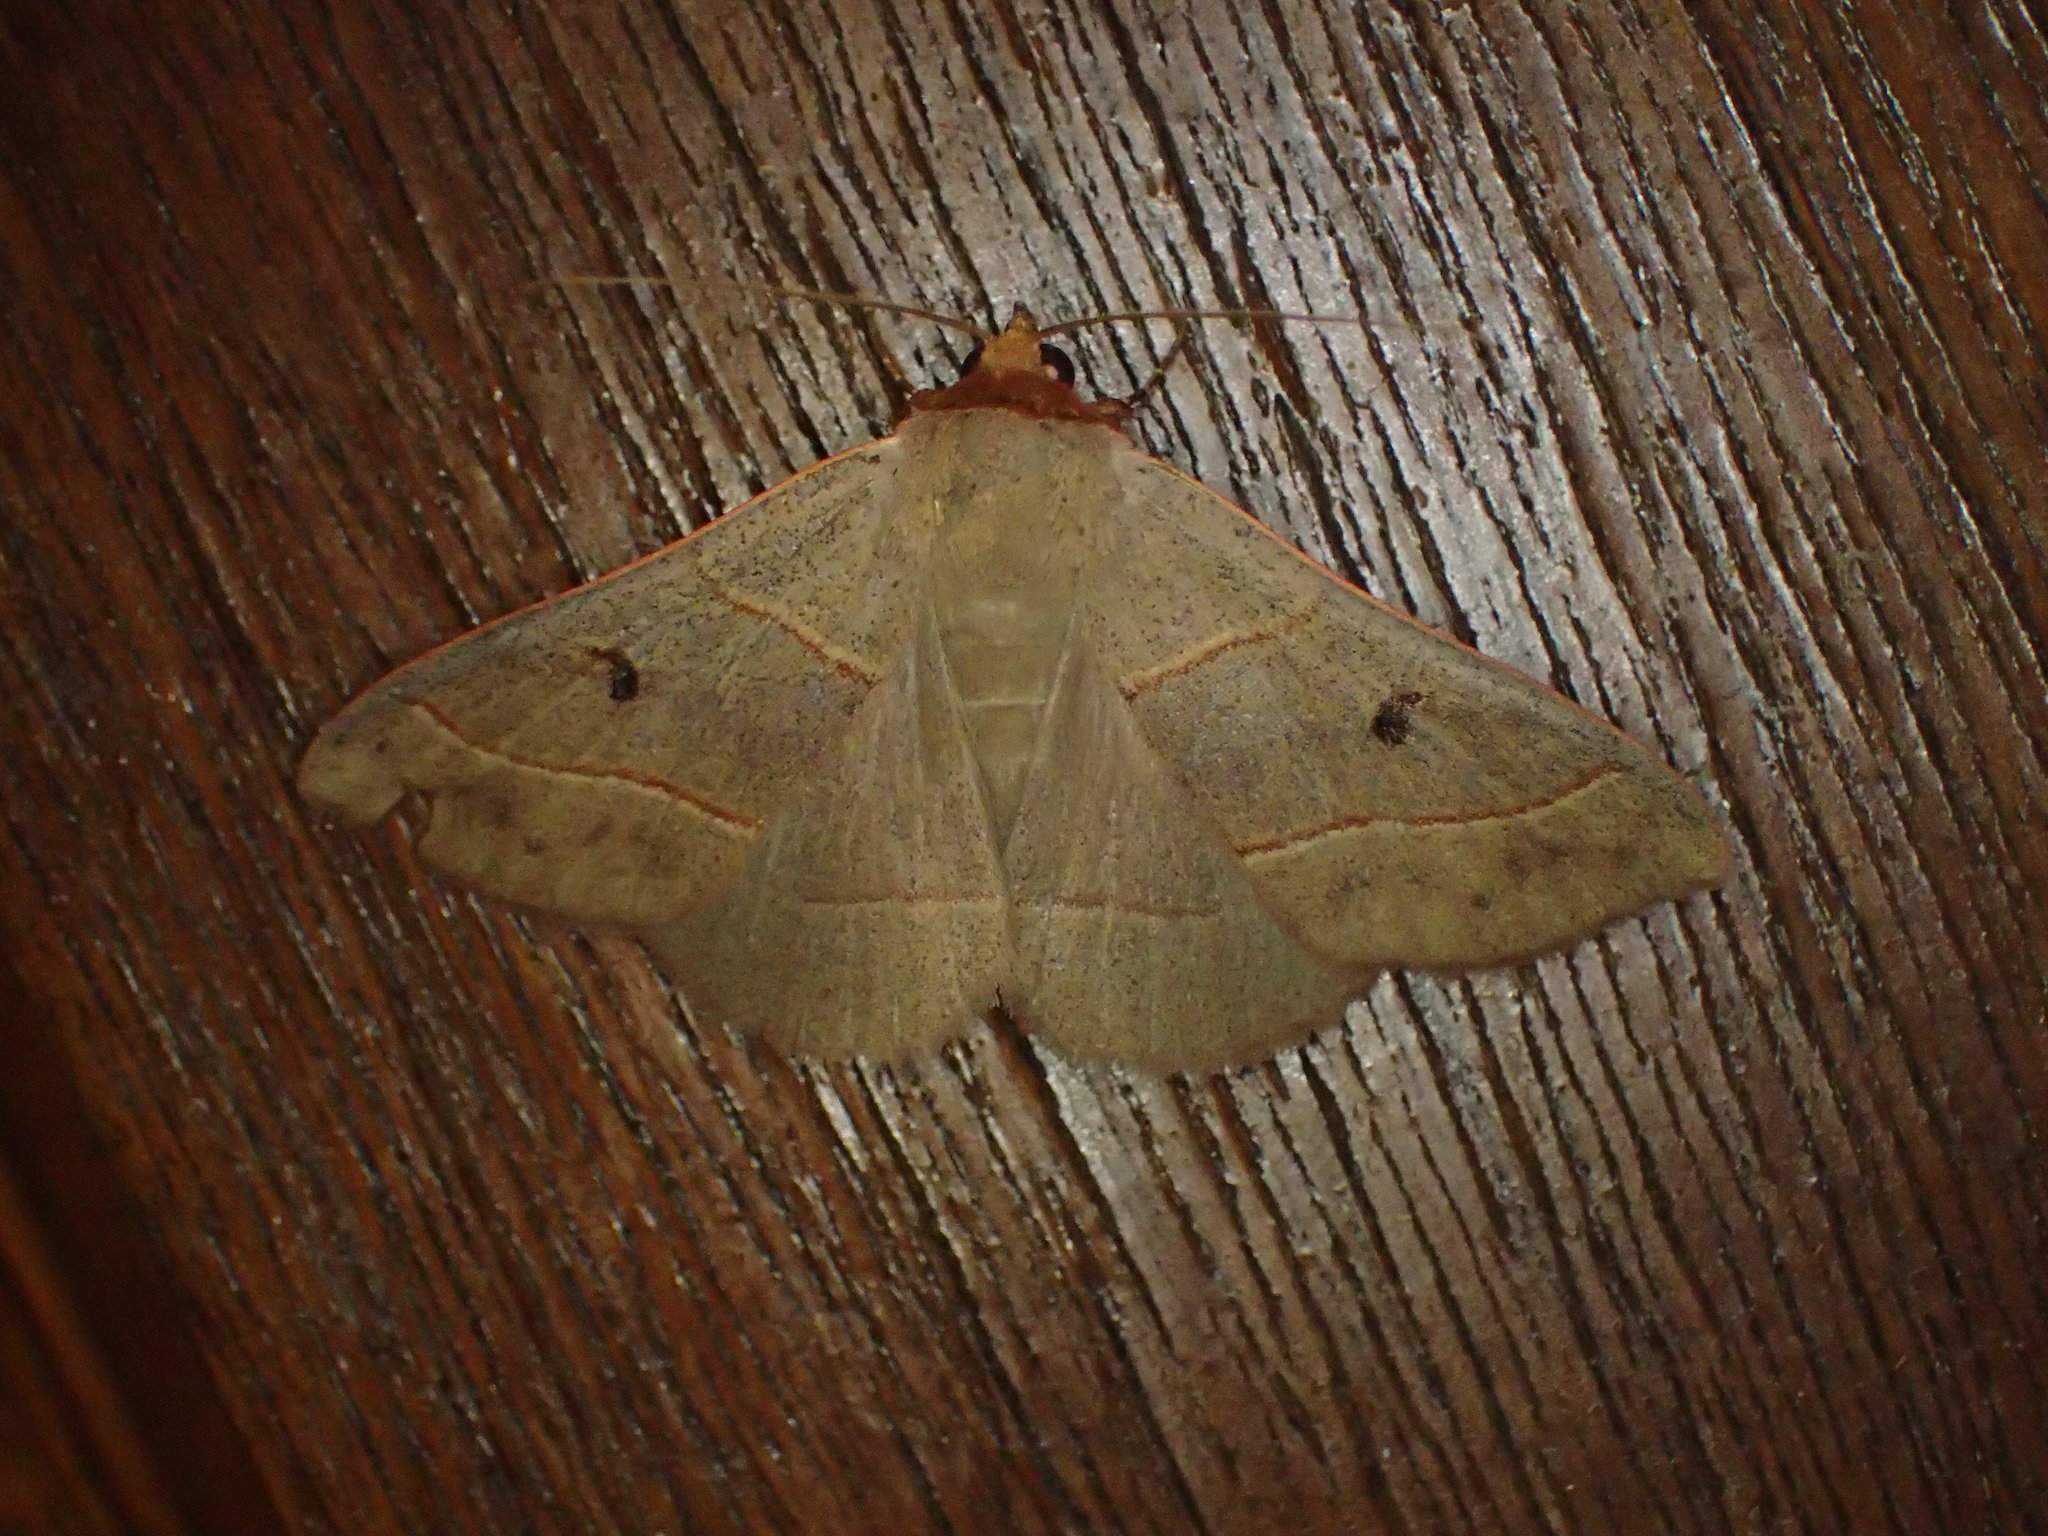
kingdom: Animalia
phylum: Arthropoda
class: Insecta
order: Lepidoptera
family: Erebidae
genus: Panopoda
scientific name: Panopoda rufimargo
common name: Red-lined panopoda moth
